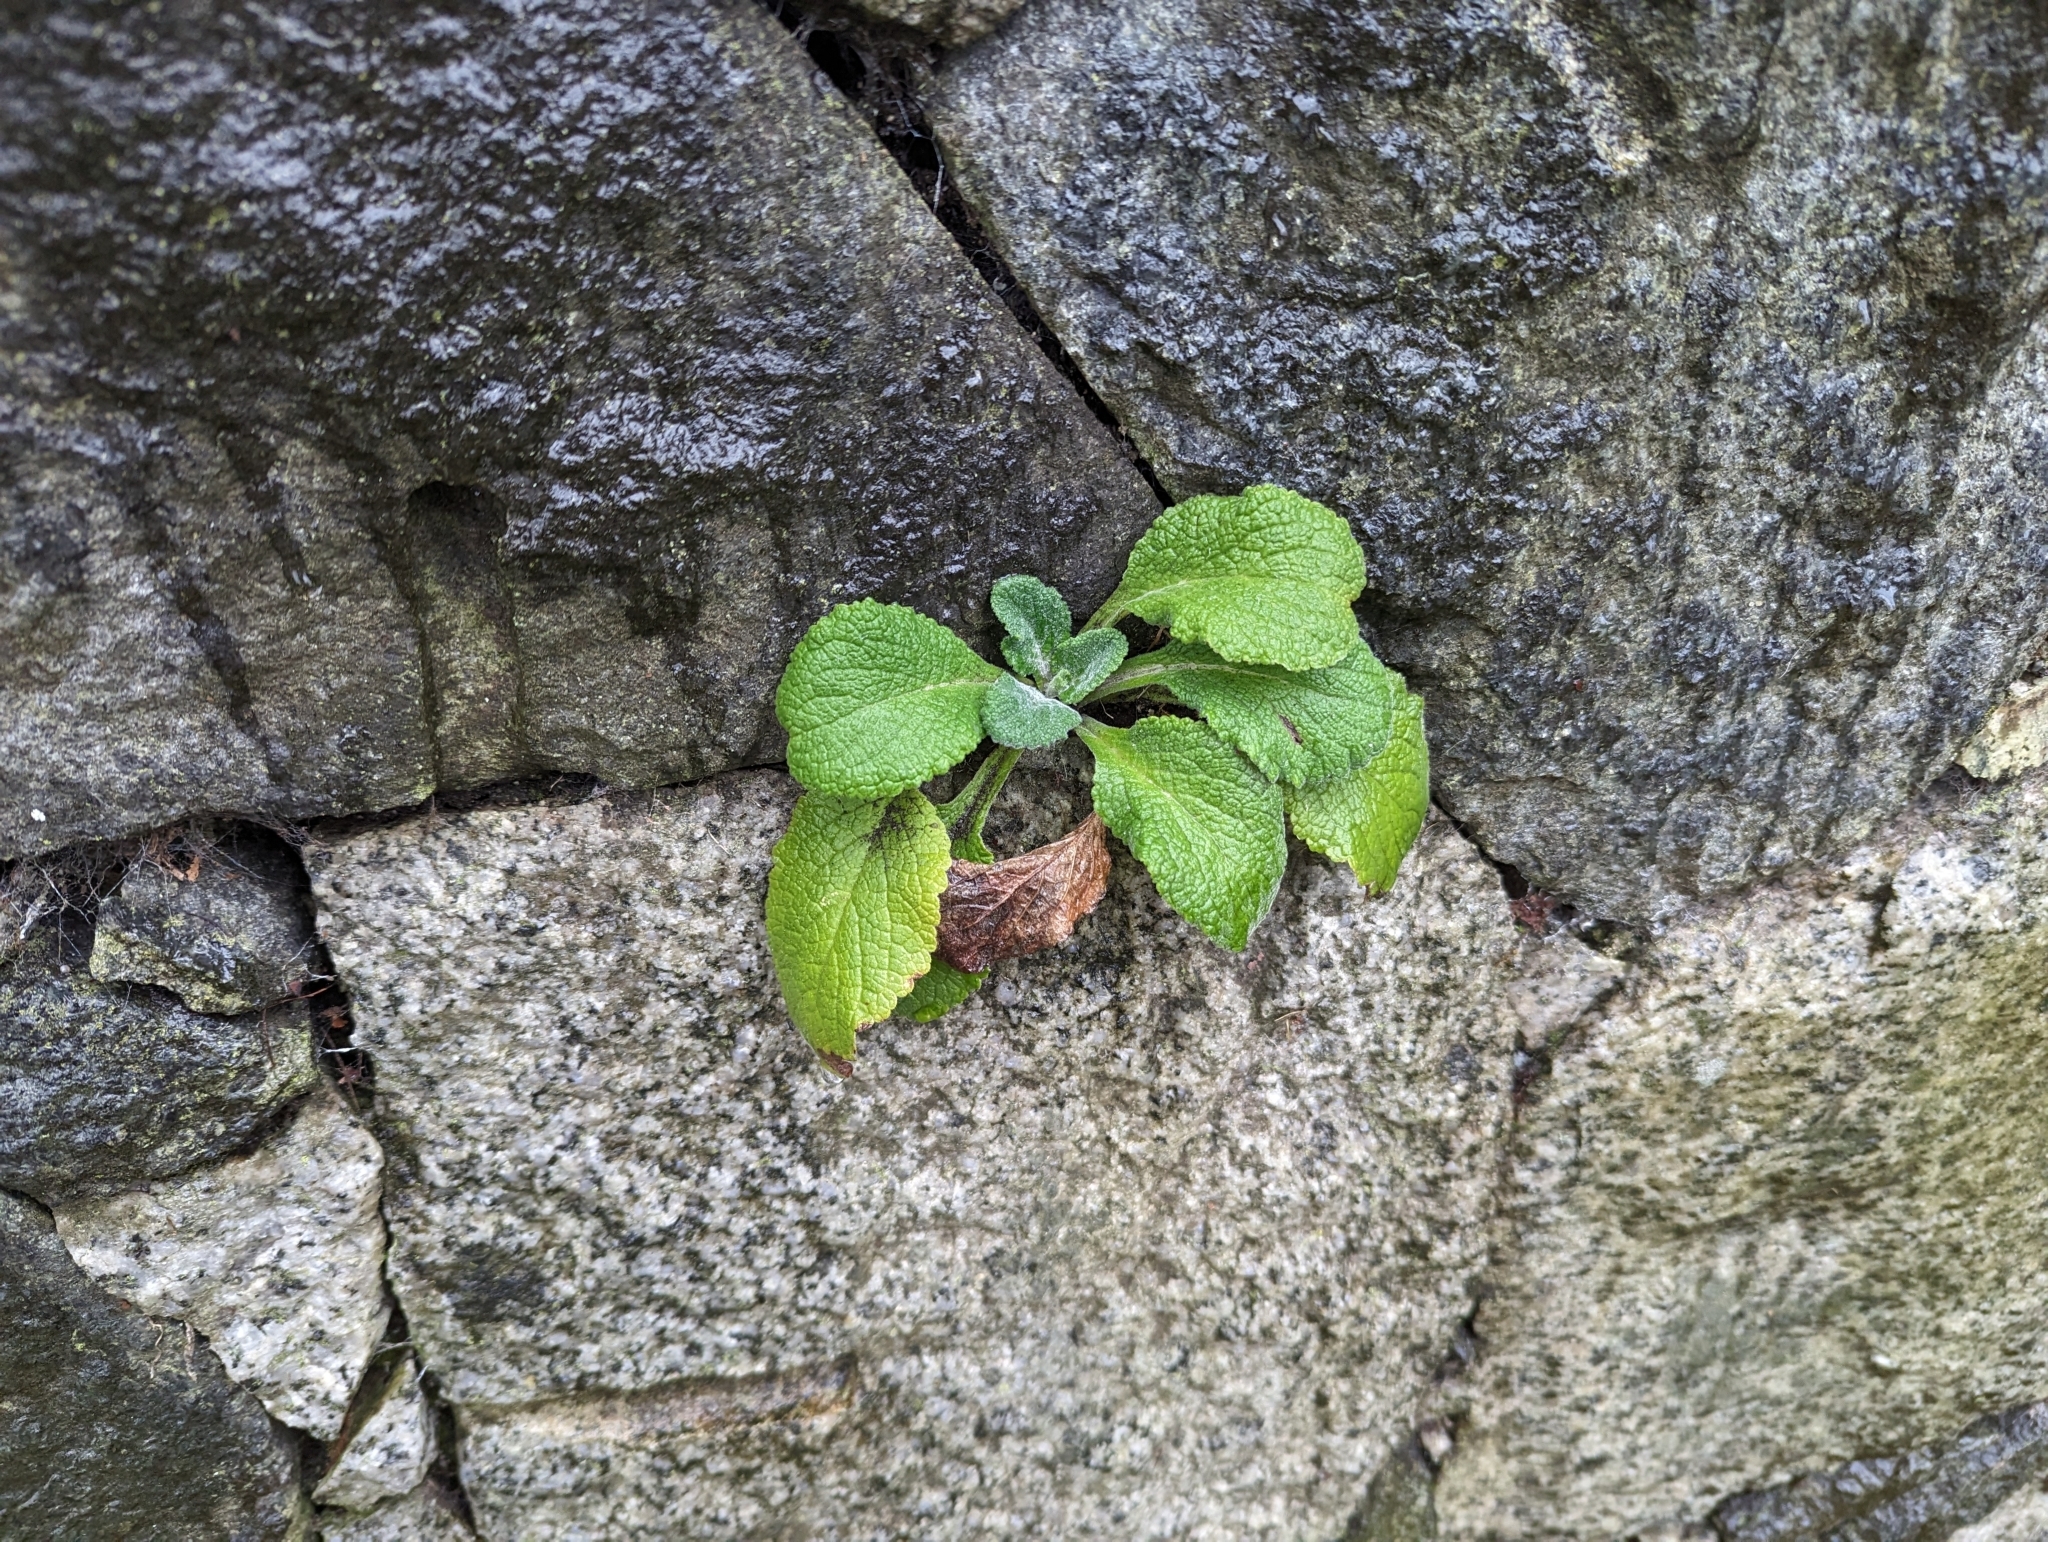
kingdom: Plantae
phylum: Tracheophyta
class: Magnoliopsida
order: Lamiales
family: Plantaginaceae
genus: Digitalis
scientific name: Digitalis purpurea
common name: Foxglove
